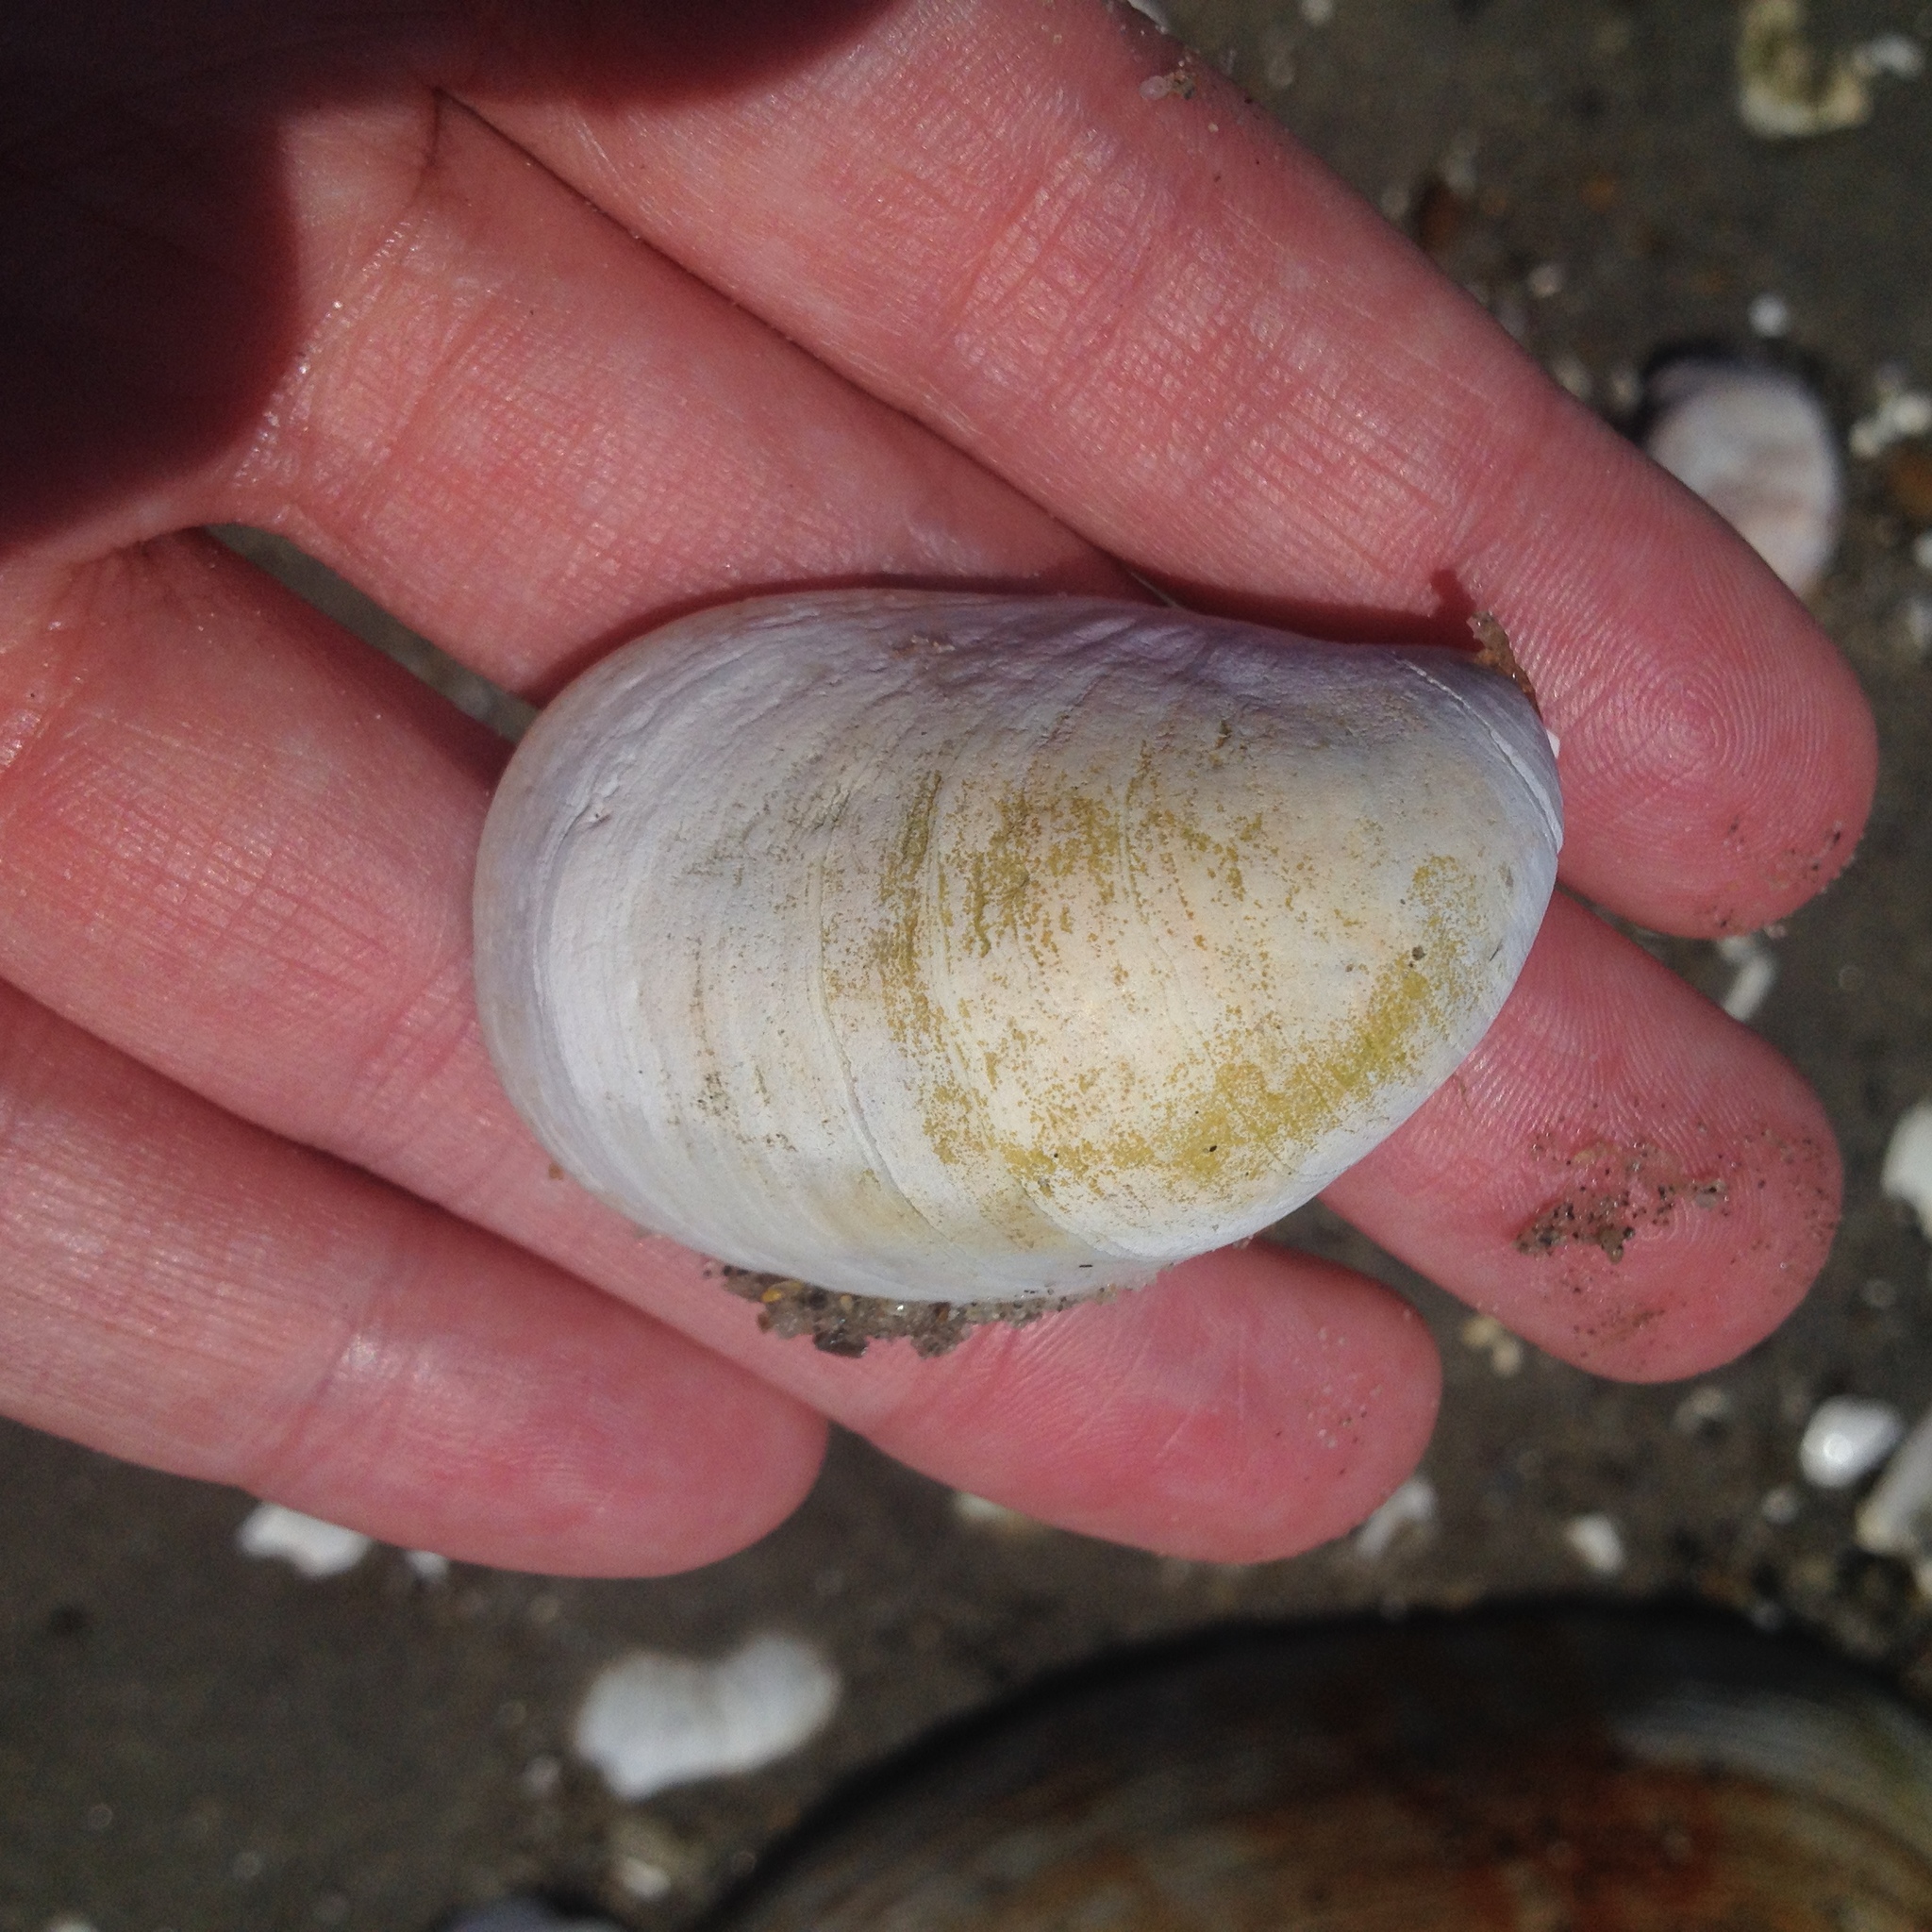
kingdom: Animalia
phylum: Mollusca
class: Gastropoda
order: Littorinimorpha
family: Calyptraeidae
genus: Crepidula
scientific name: Crepidula fornicata
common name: Slipper limpet
